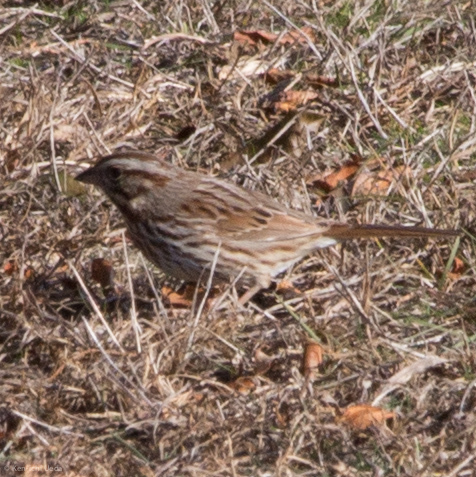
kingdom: Animalia
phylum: Chordata
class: Aves
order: Passeriformes
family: Passerellidae
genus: Melospiza
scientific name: Melospiza melodia
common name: Song sparrow
